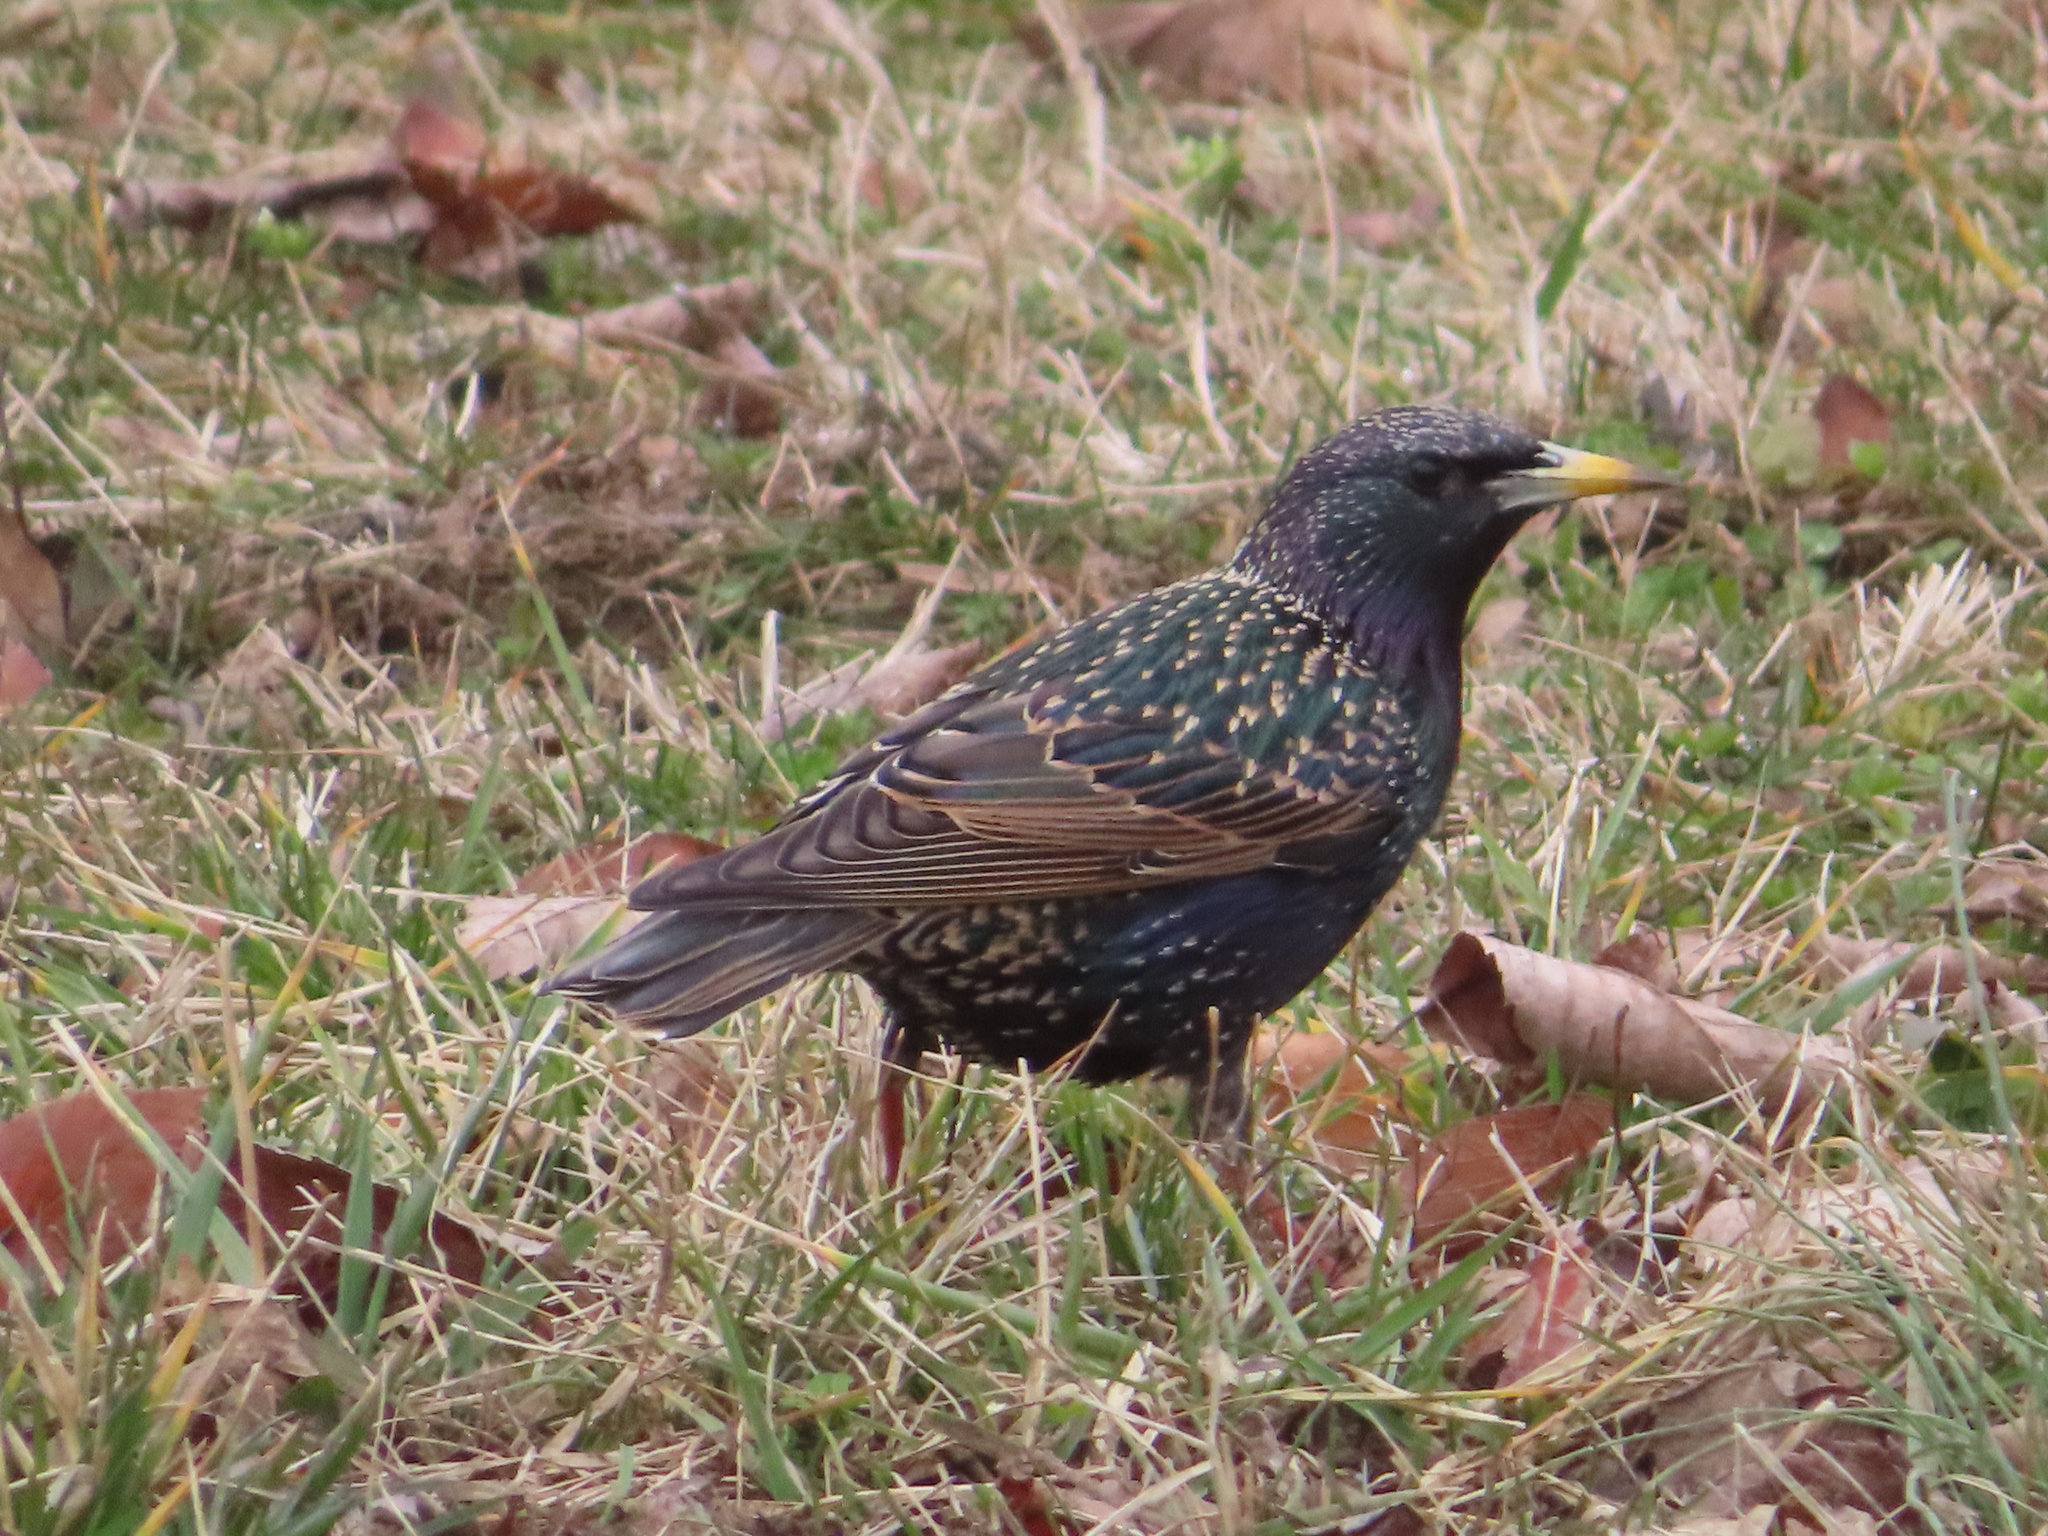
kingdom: Animalia
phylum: Chordata
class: Aves
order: Passeriformes
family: Sturnidae
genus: Sturnus
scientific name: Sturnus vulgaris
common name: Common starling
